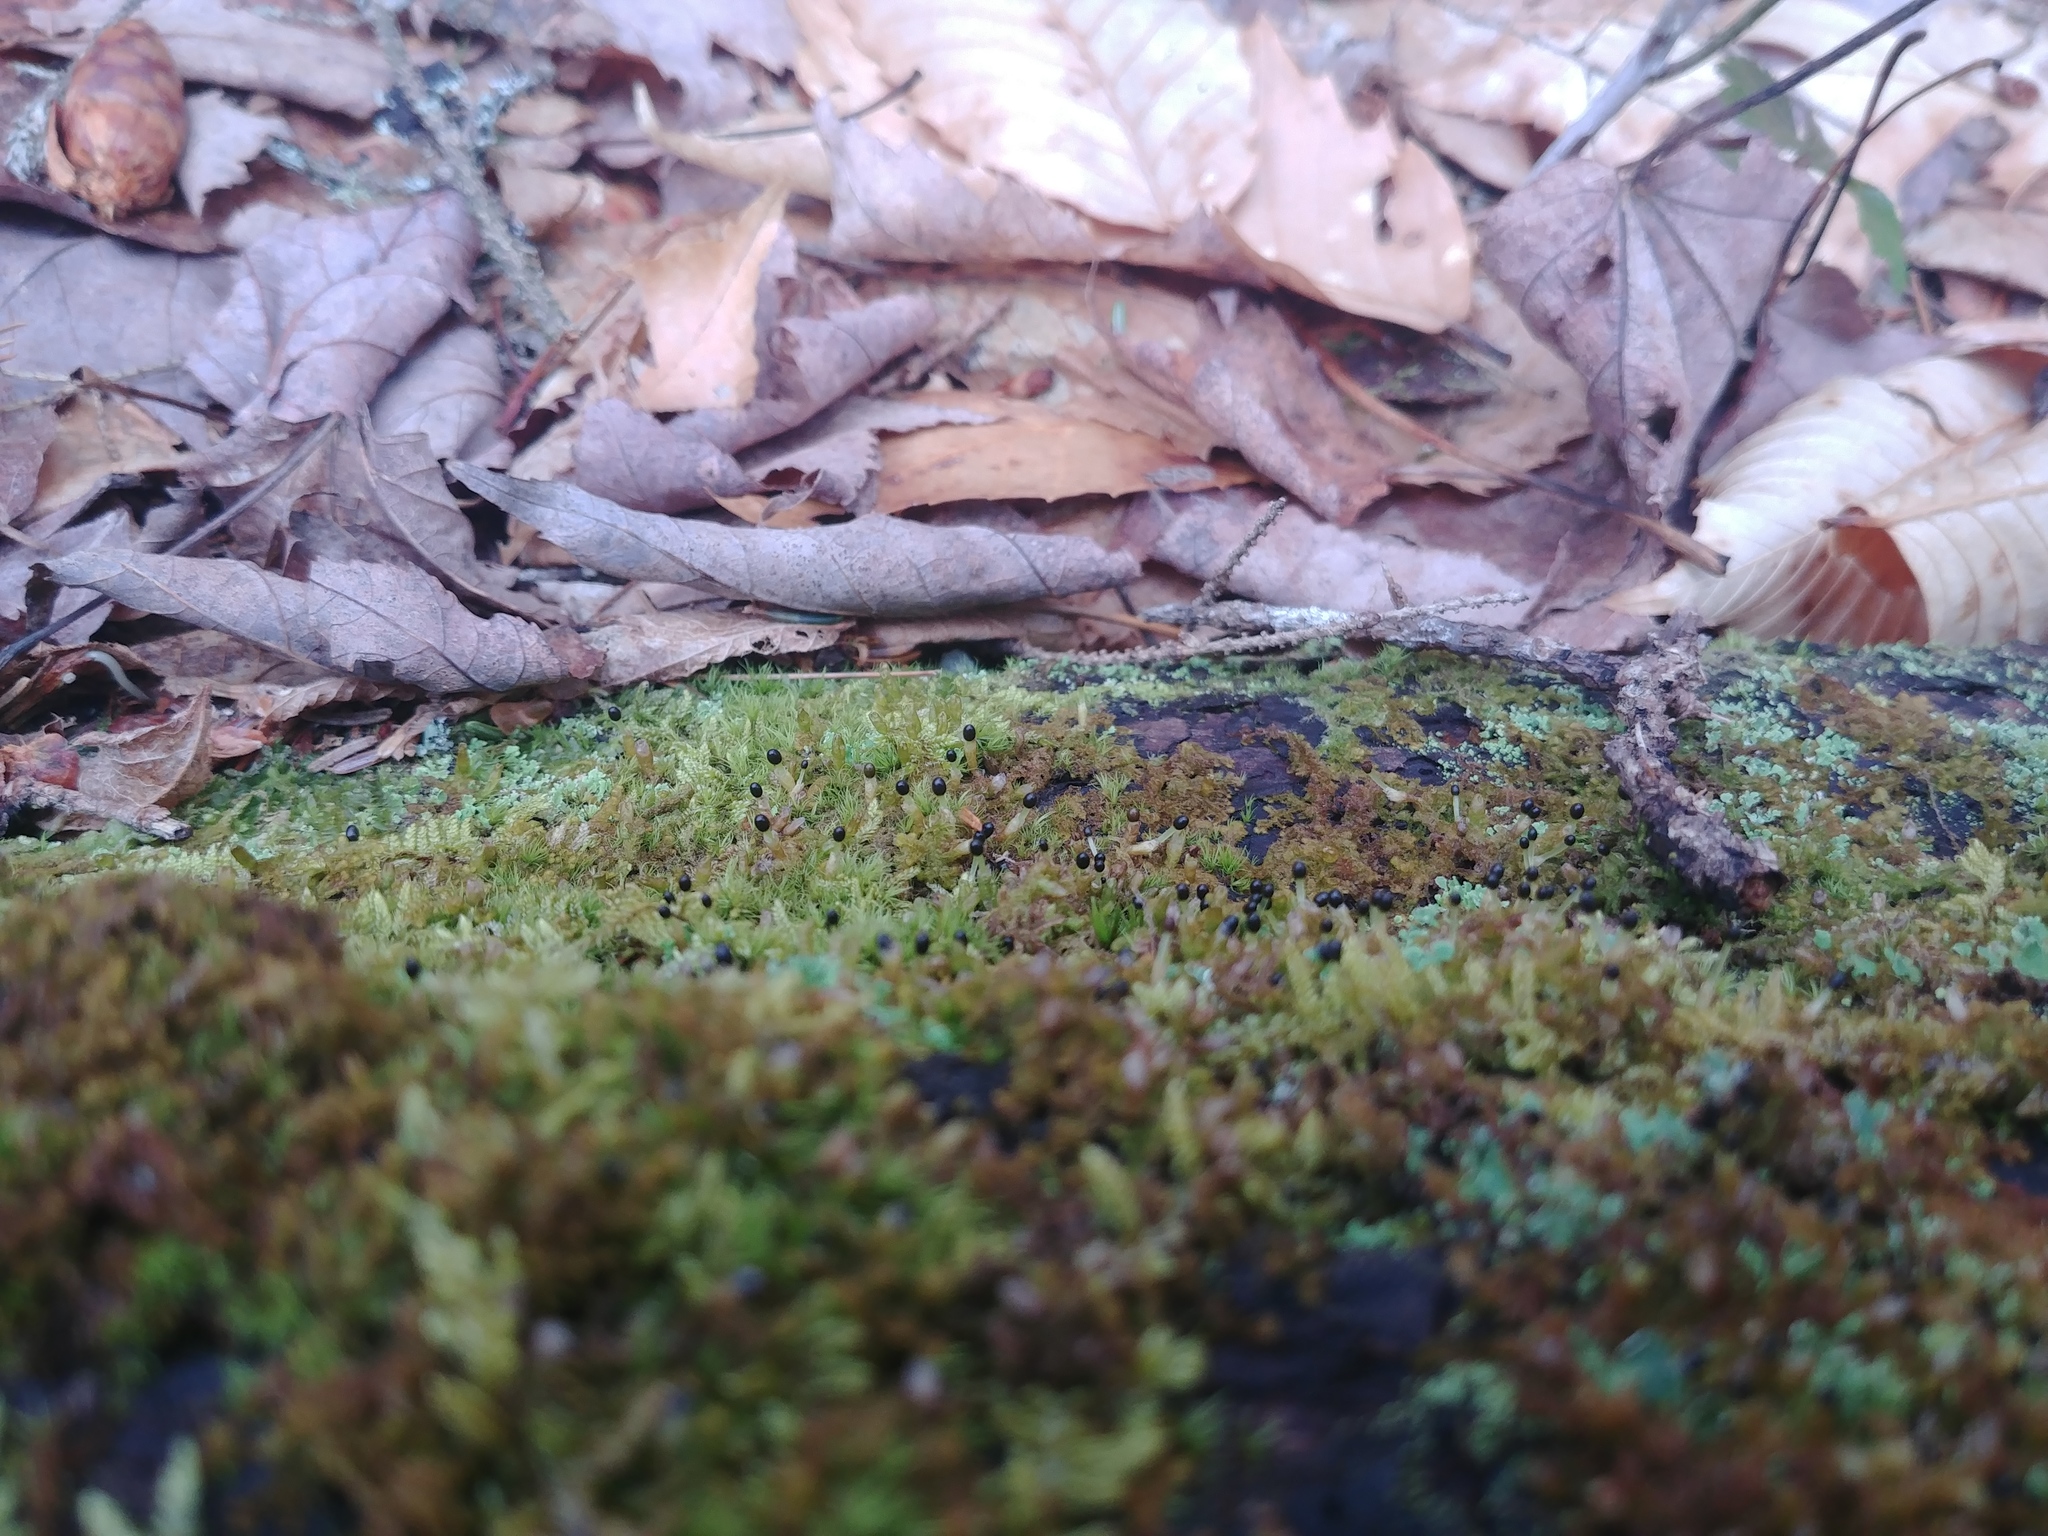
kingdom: Plantae
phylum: Marchantiophyta
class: Jungermanniopsida
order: Ptilidiales
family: Ptilidiaceae
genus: Ptilidium
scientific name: Ptilidium pulcherrimum
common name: Tree fringewort
